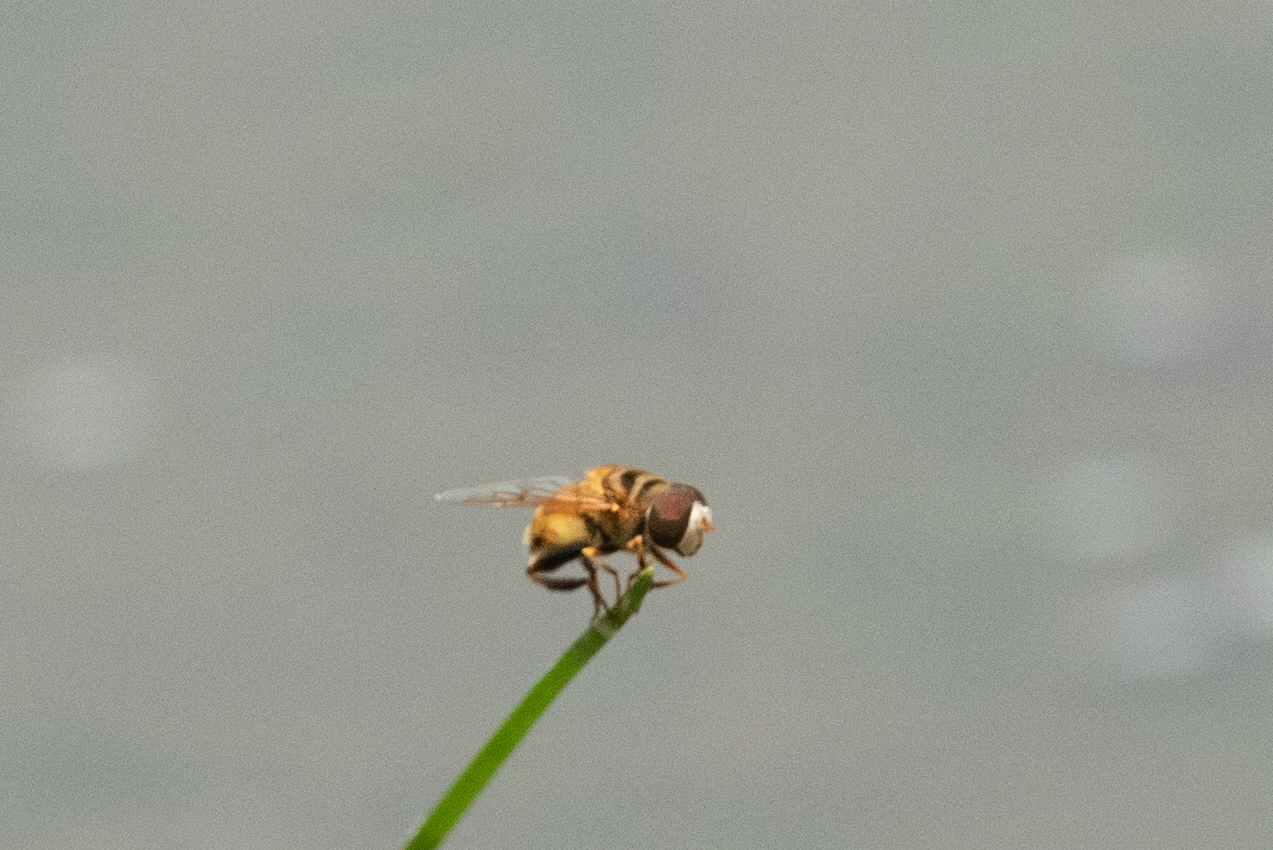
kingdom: Animalia
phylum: Arthropoda
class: Insecta
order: Diptera
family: Syrphidae
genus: Palpada
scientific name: Palpada vinetorum
